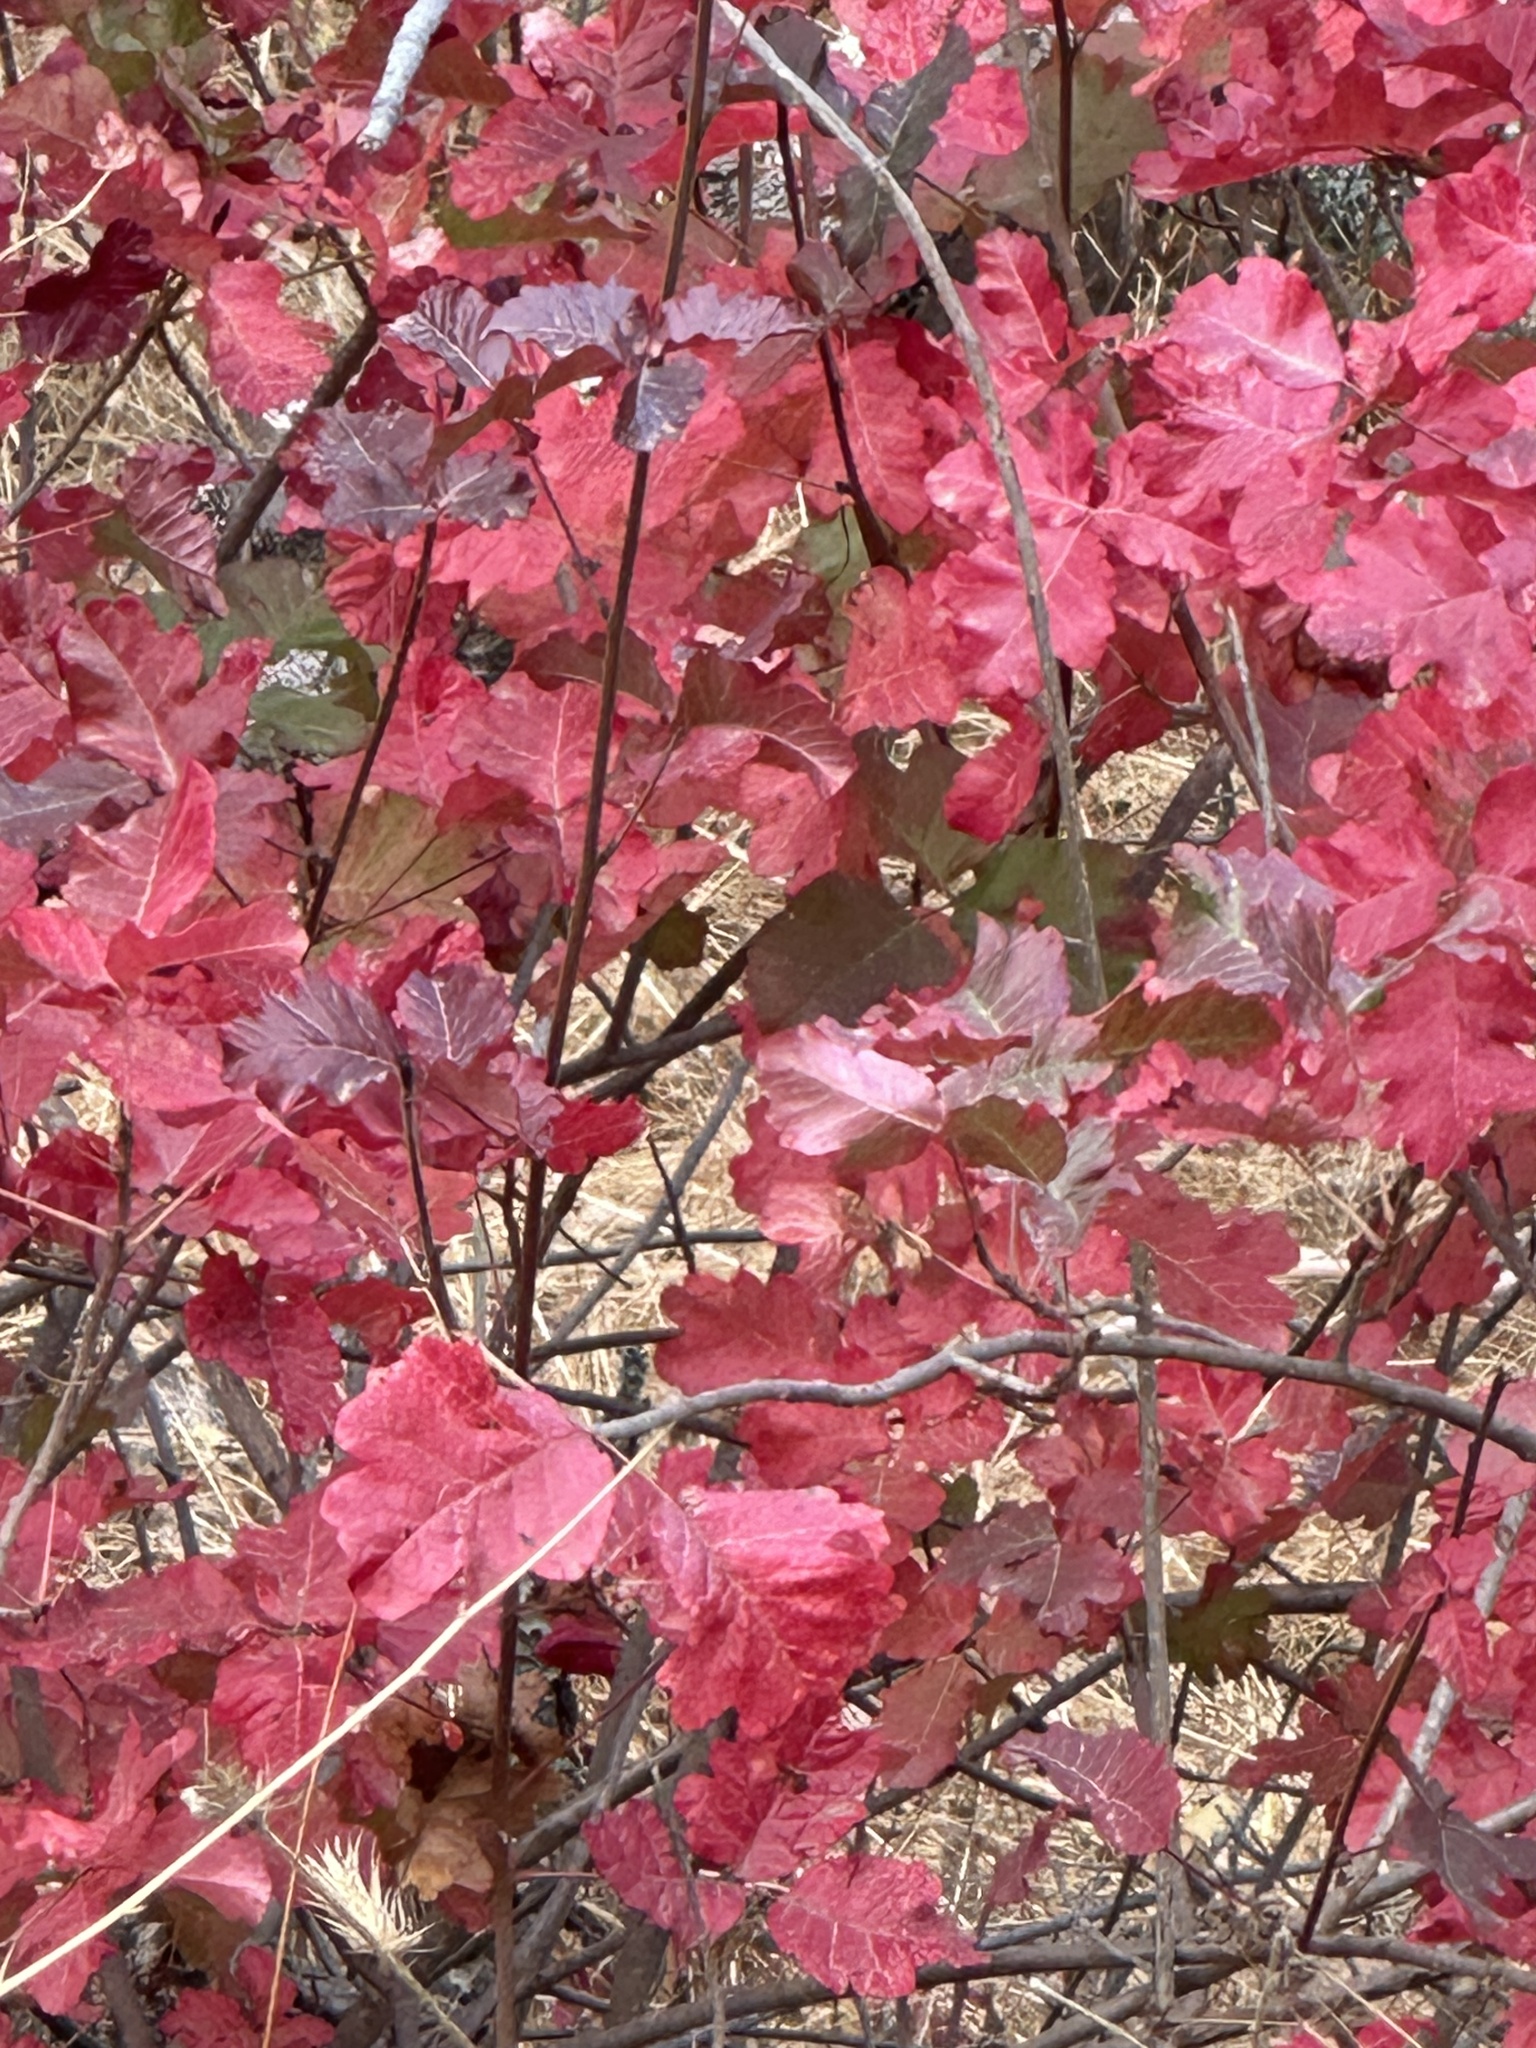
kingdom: Plantae
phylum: Tracheophyta
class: Magnoliopsida
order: Sapindales
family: Anacardiaceae
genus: Toxicodendron
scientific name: Toxicodendron diversilobum
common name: Pacific poison-oak
